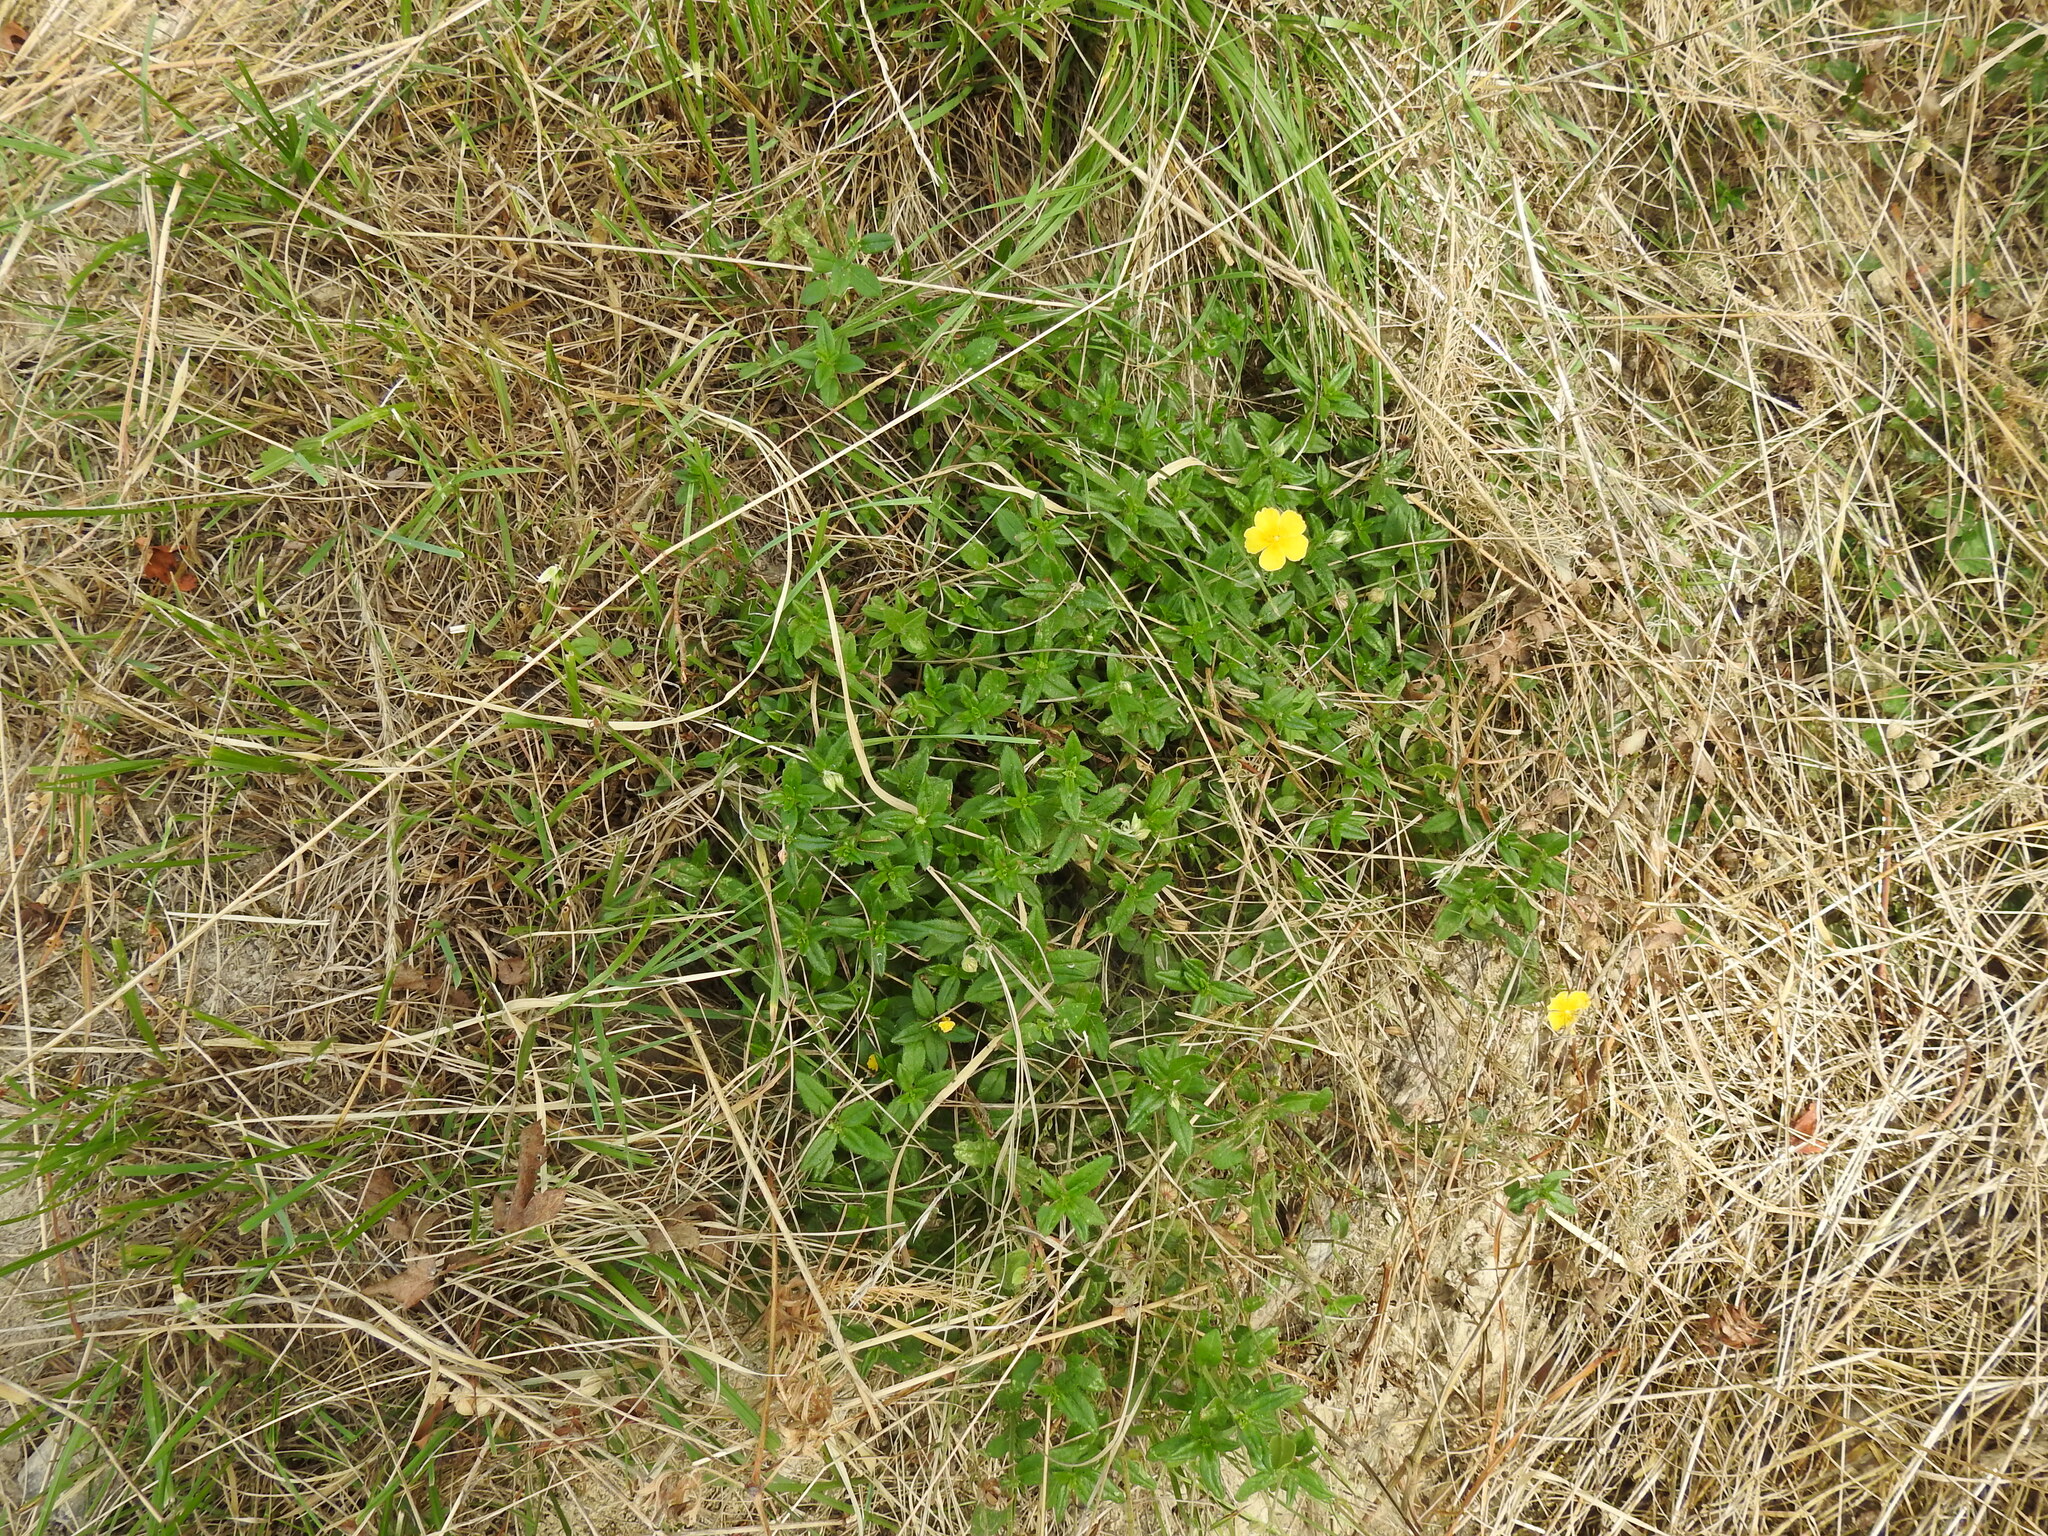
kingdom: Plantae
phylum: Tracheophyta
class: Magnoliopsida
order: Malvales
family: Cistaceae
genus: Helianthemum
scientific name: Helianthemum nummularium
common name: Common rock-rose
